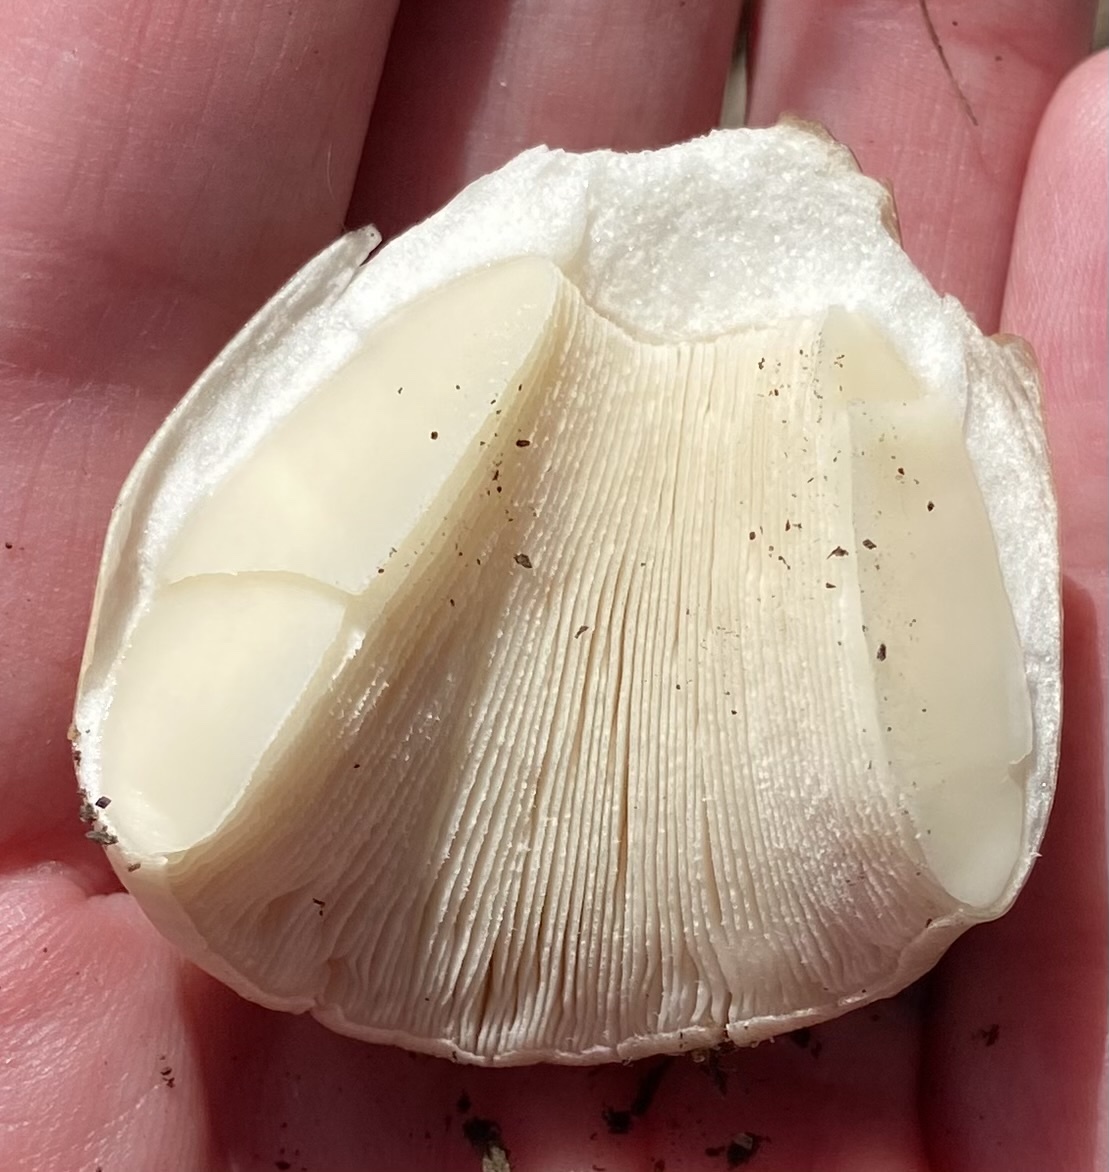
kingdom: Fungi
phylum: Basidiomycota
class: Agaricomycetes
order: Agaricales
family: Pluteaceae
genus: Volvopluteus
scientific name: Volvopluteus gloiocephalus
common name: Stubble rosegill
